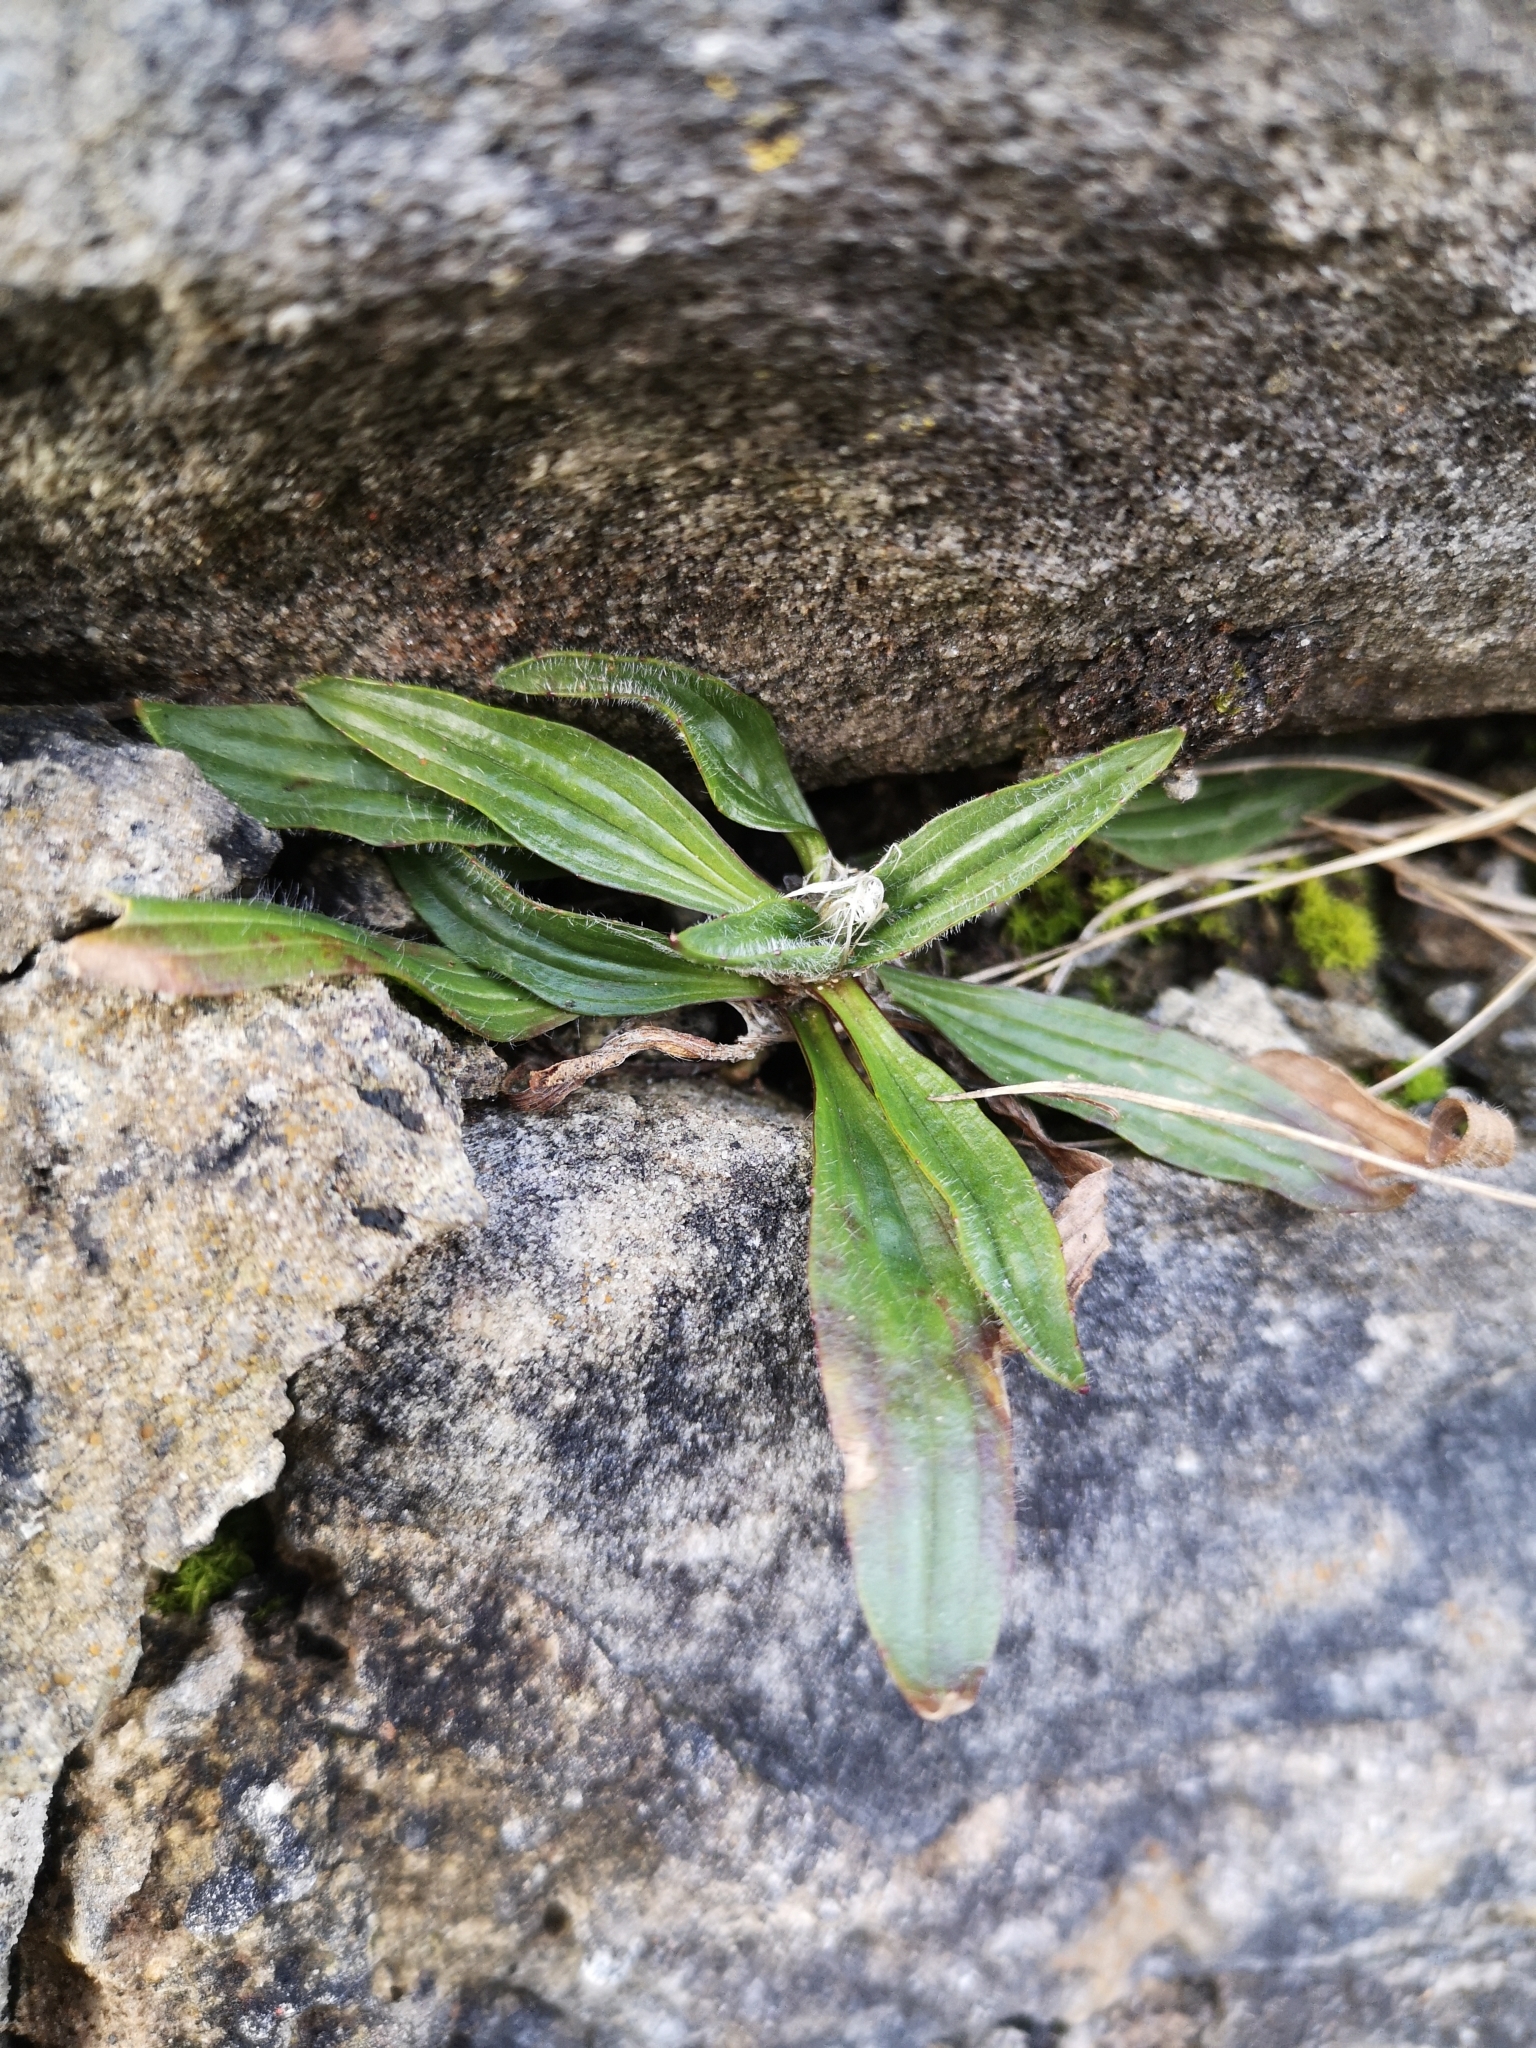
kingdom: Plantae
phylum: Tracheophyta
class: Magnoliopsida
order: Lamiales
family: Plantaginaceae
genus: Plantago
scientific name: Plantago lanceolata
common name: Ribwort plantain
